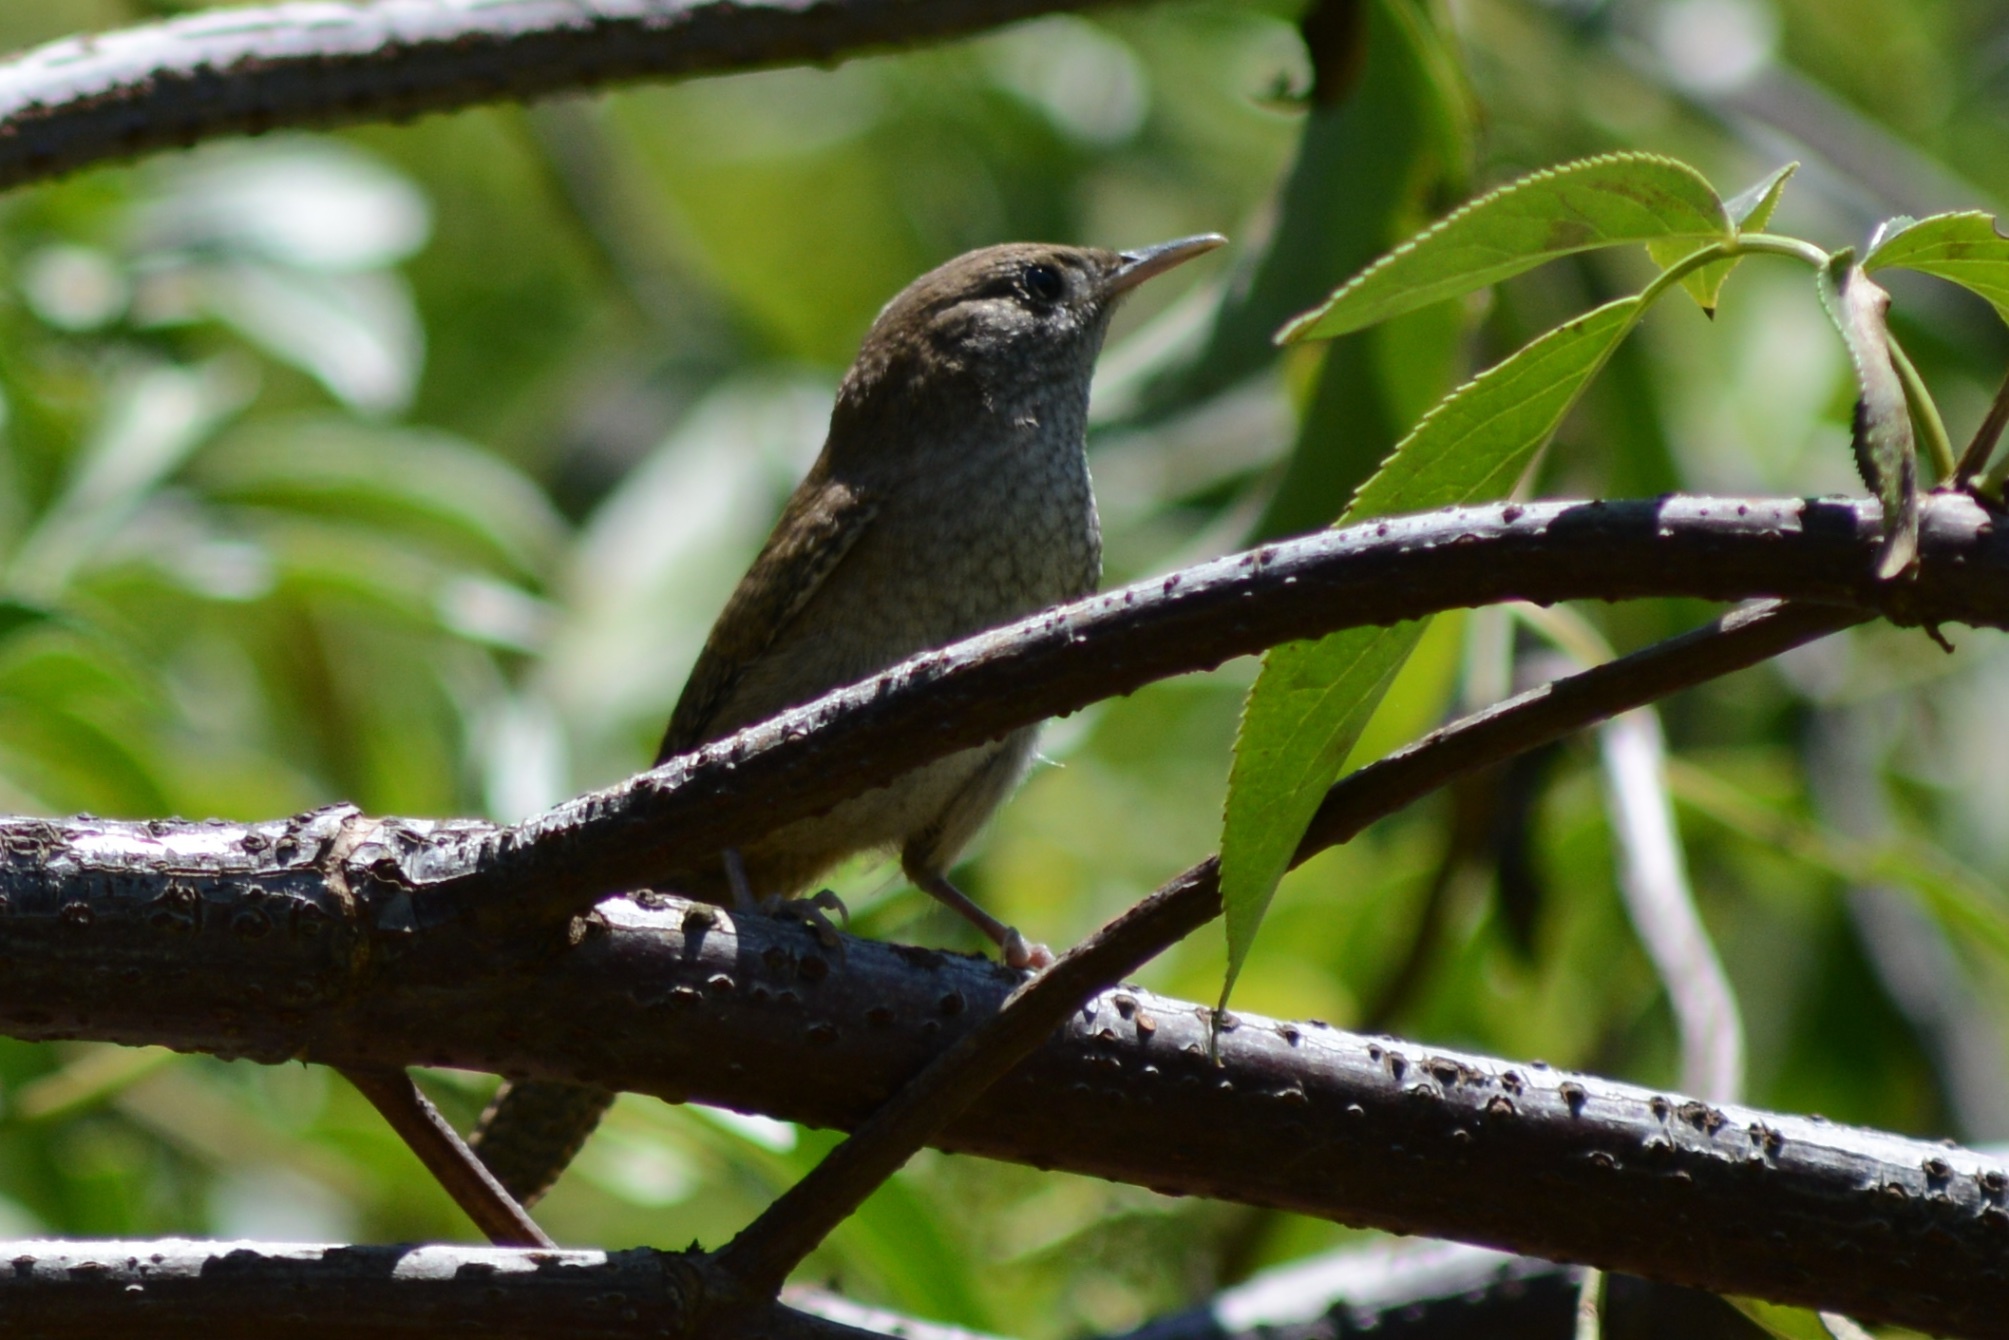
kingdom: Animalia
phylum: Chordata
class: Aves
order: Passeriformes
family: Troglodytidae
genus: Troglodytes
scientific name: Troglodytes aedon
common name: House wren
